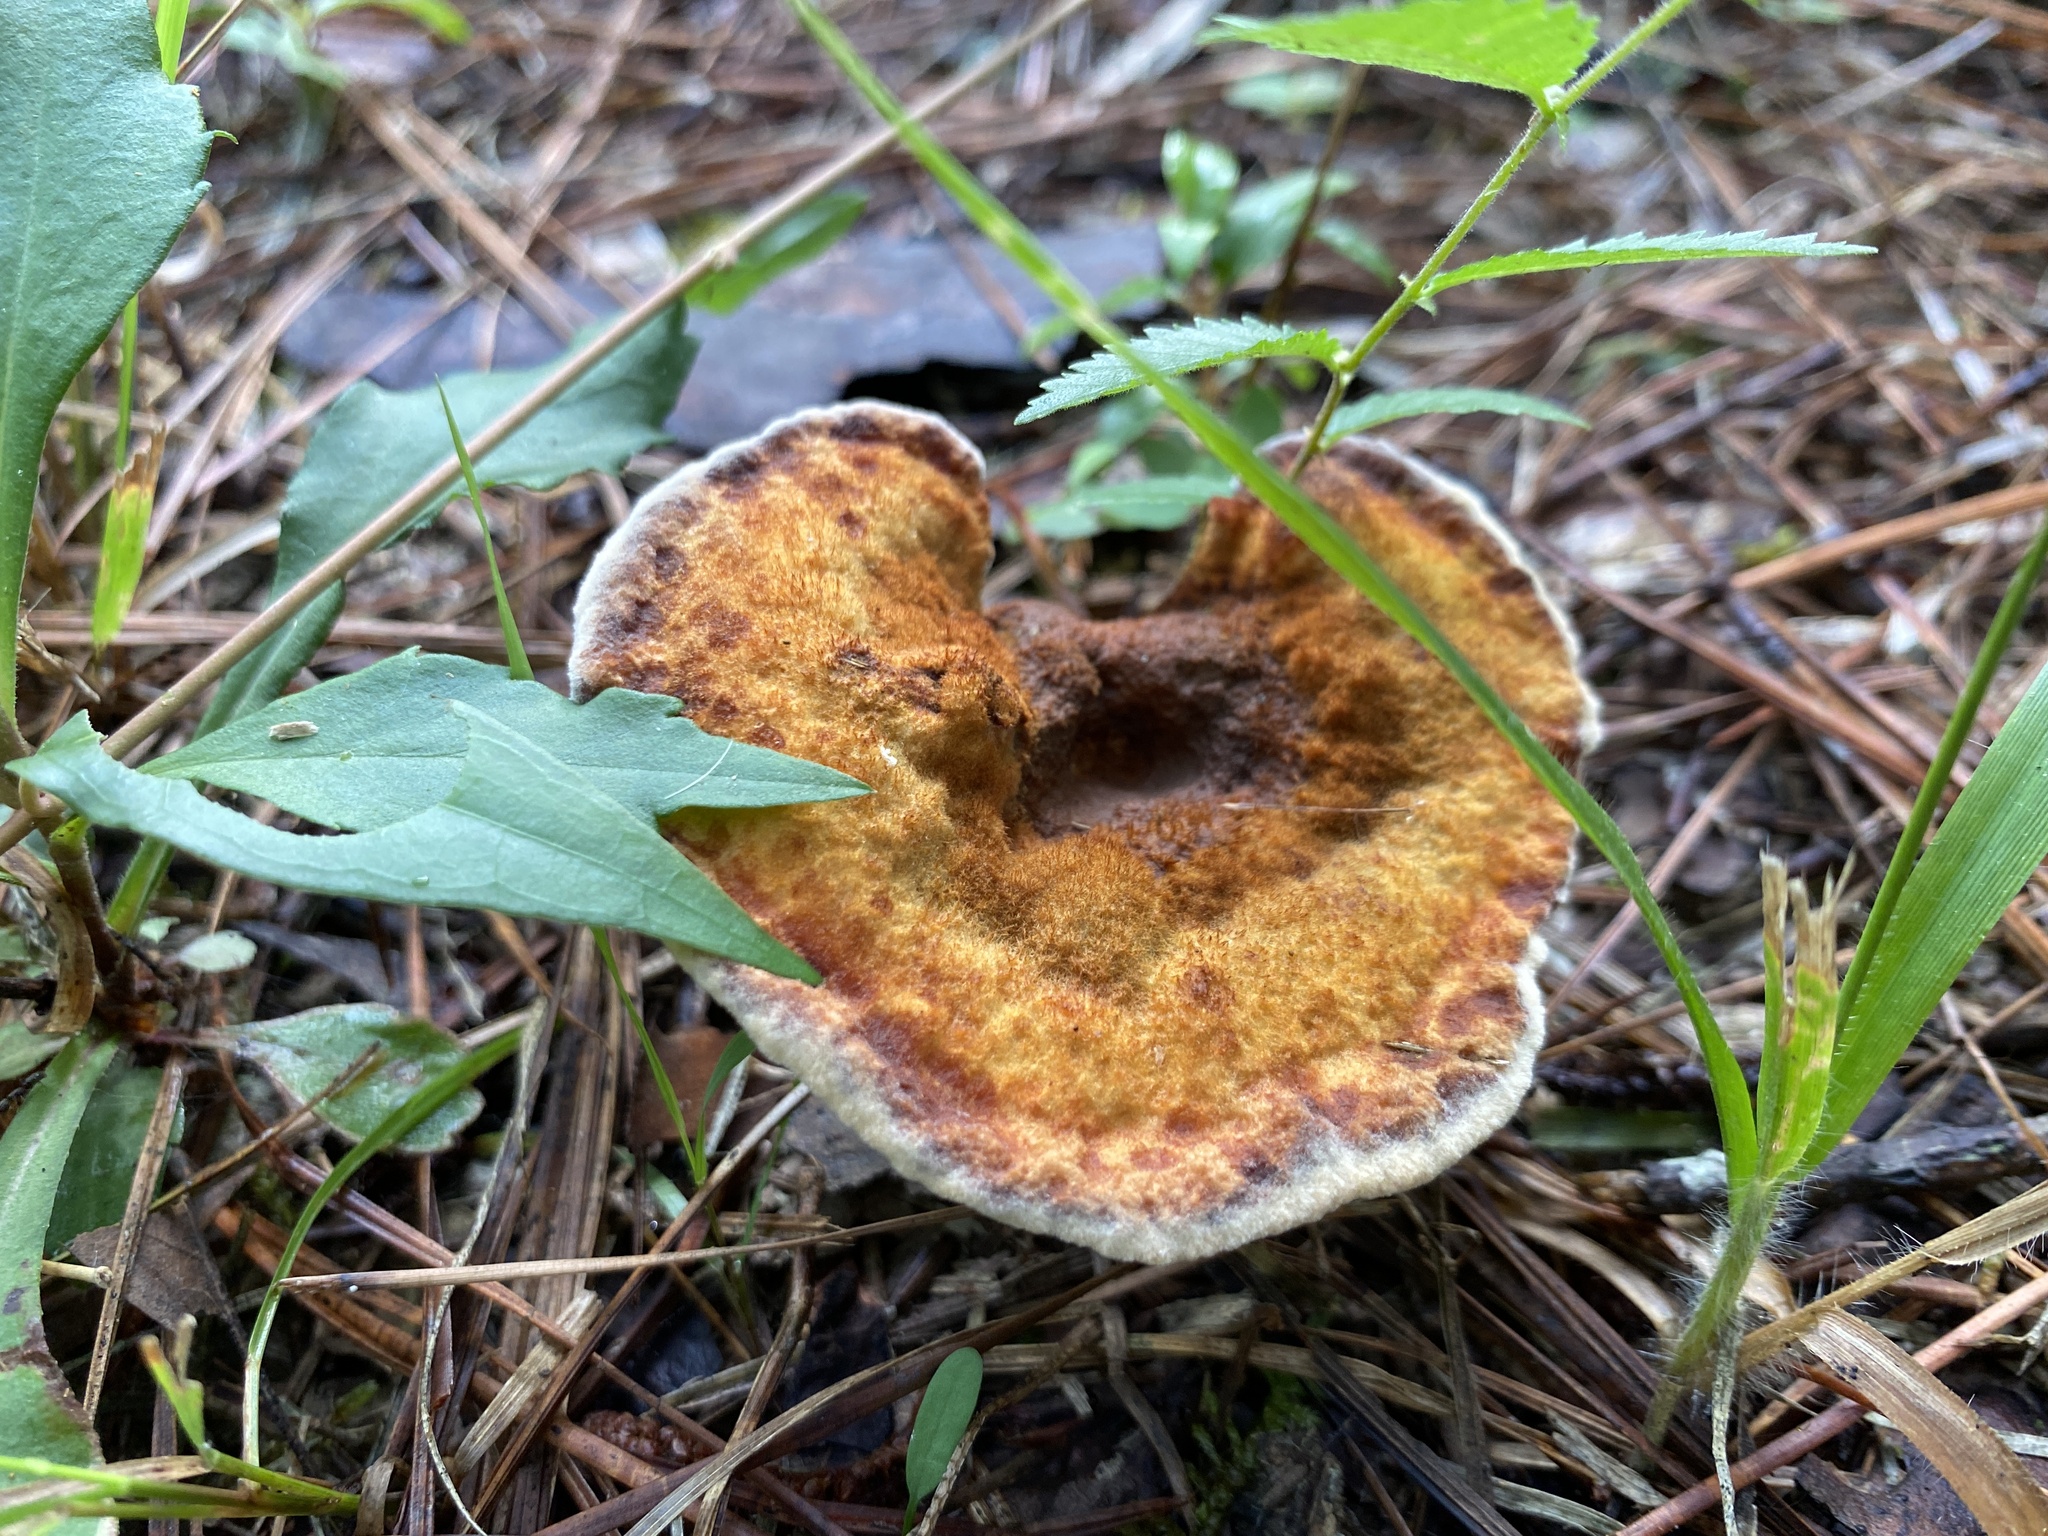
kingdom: Fungi
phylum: Basidiomycota
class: Agaricomycetes
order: Polyporales
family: Laetiporaceae
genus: Phaeolus
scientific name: Phaeolus schweinitzii
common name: Dyer's mazegill
